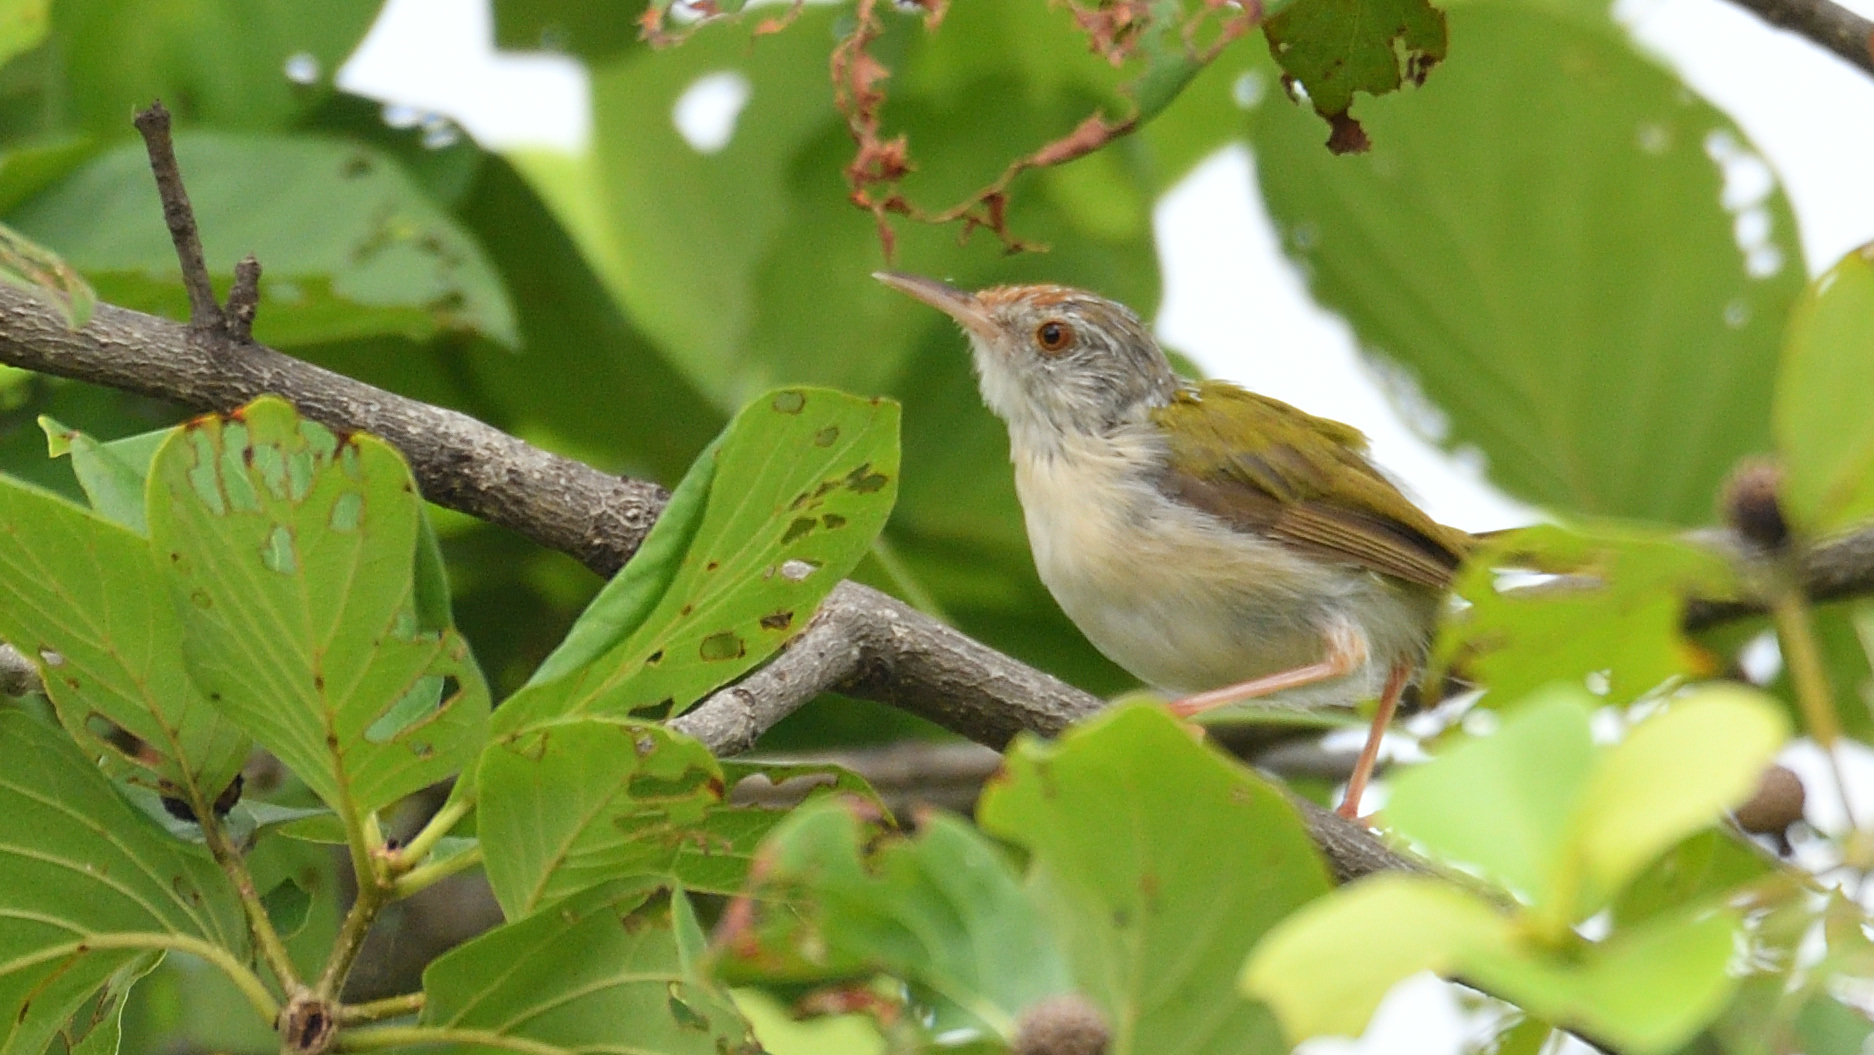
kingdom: Animalia
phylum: Chordata
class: Aves
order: Passeriformes
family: Cisticolidae
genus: Orthotomus
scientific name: Orthotomus sutorius
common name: Common tailorbird
